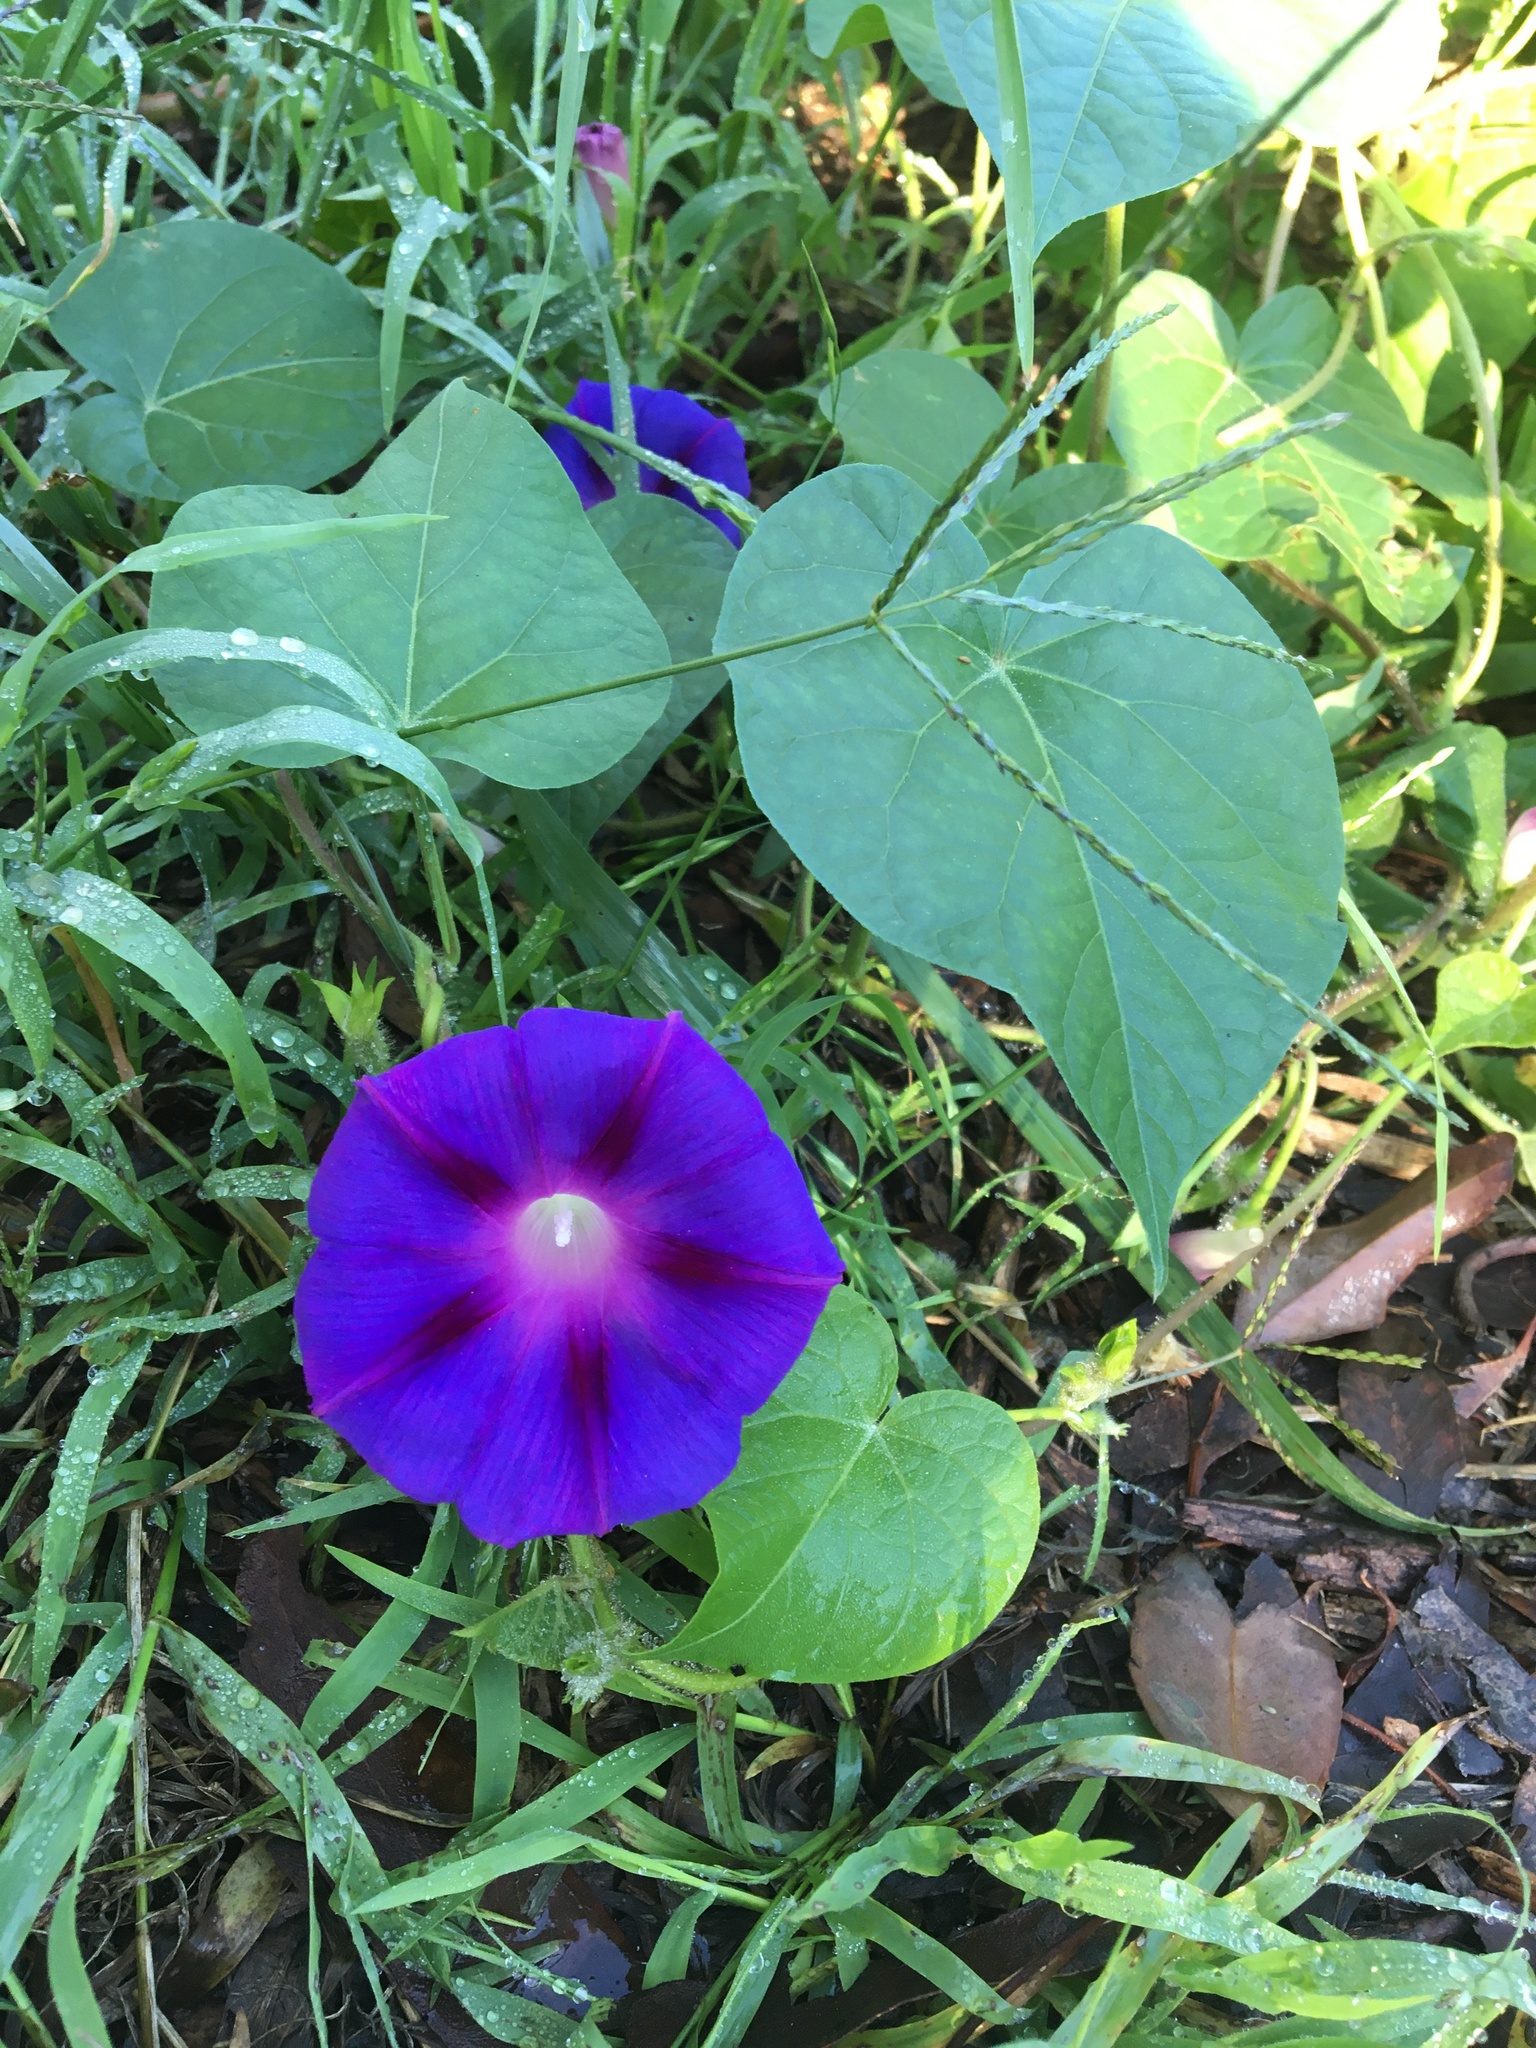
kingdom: Plantae
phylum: Tracheophyta
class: Magnoliopsida
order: Solanales
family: Convolvulaceae
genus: Ipomoea
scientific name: Ipomoea purpurea
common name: Common morning-glory
